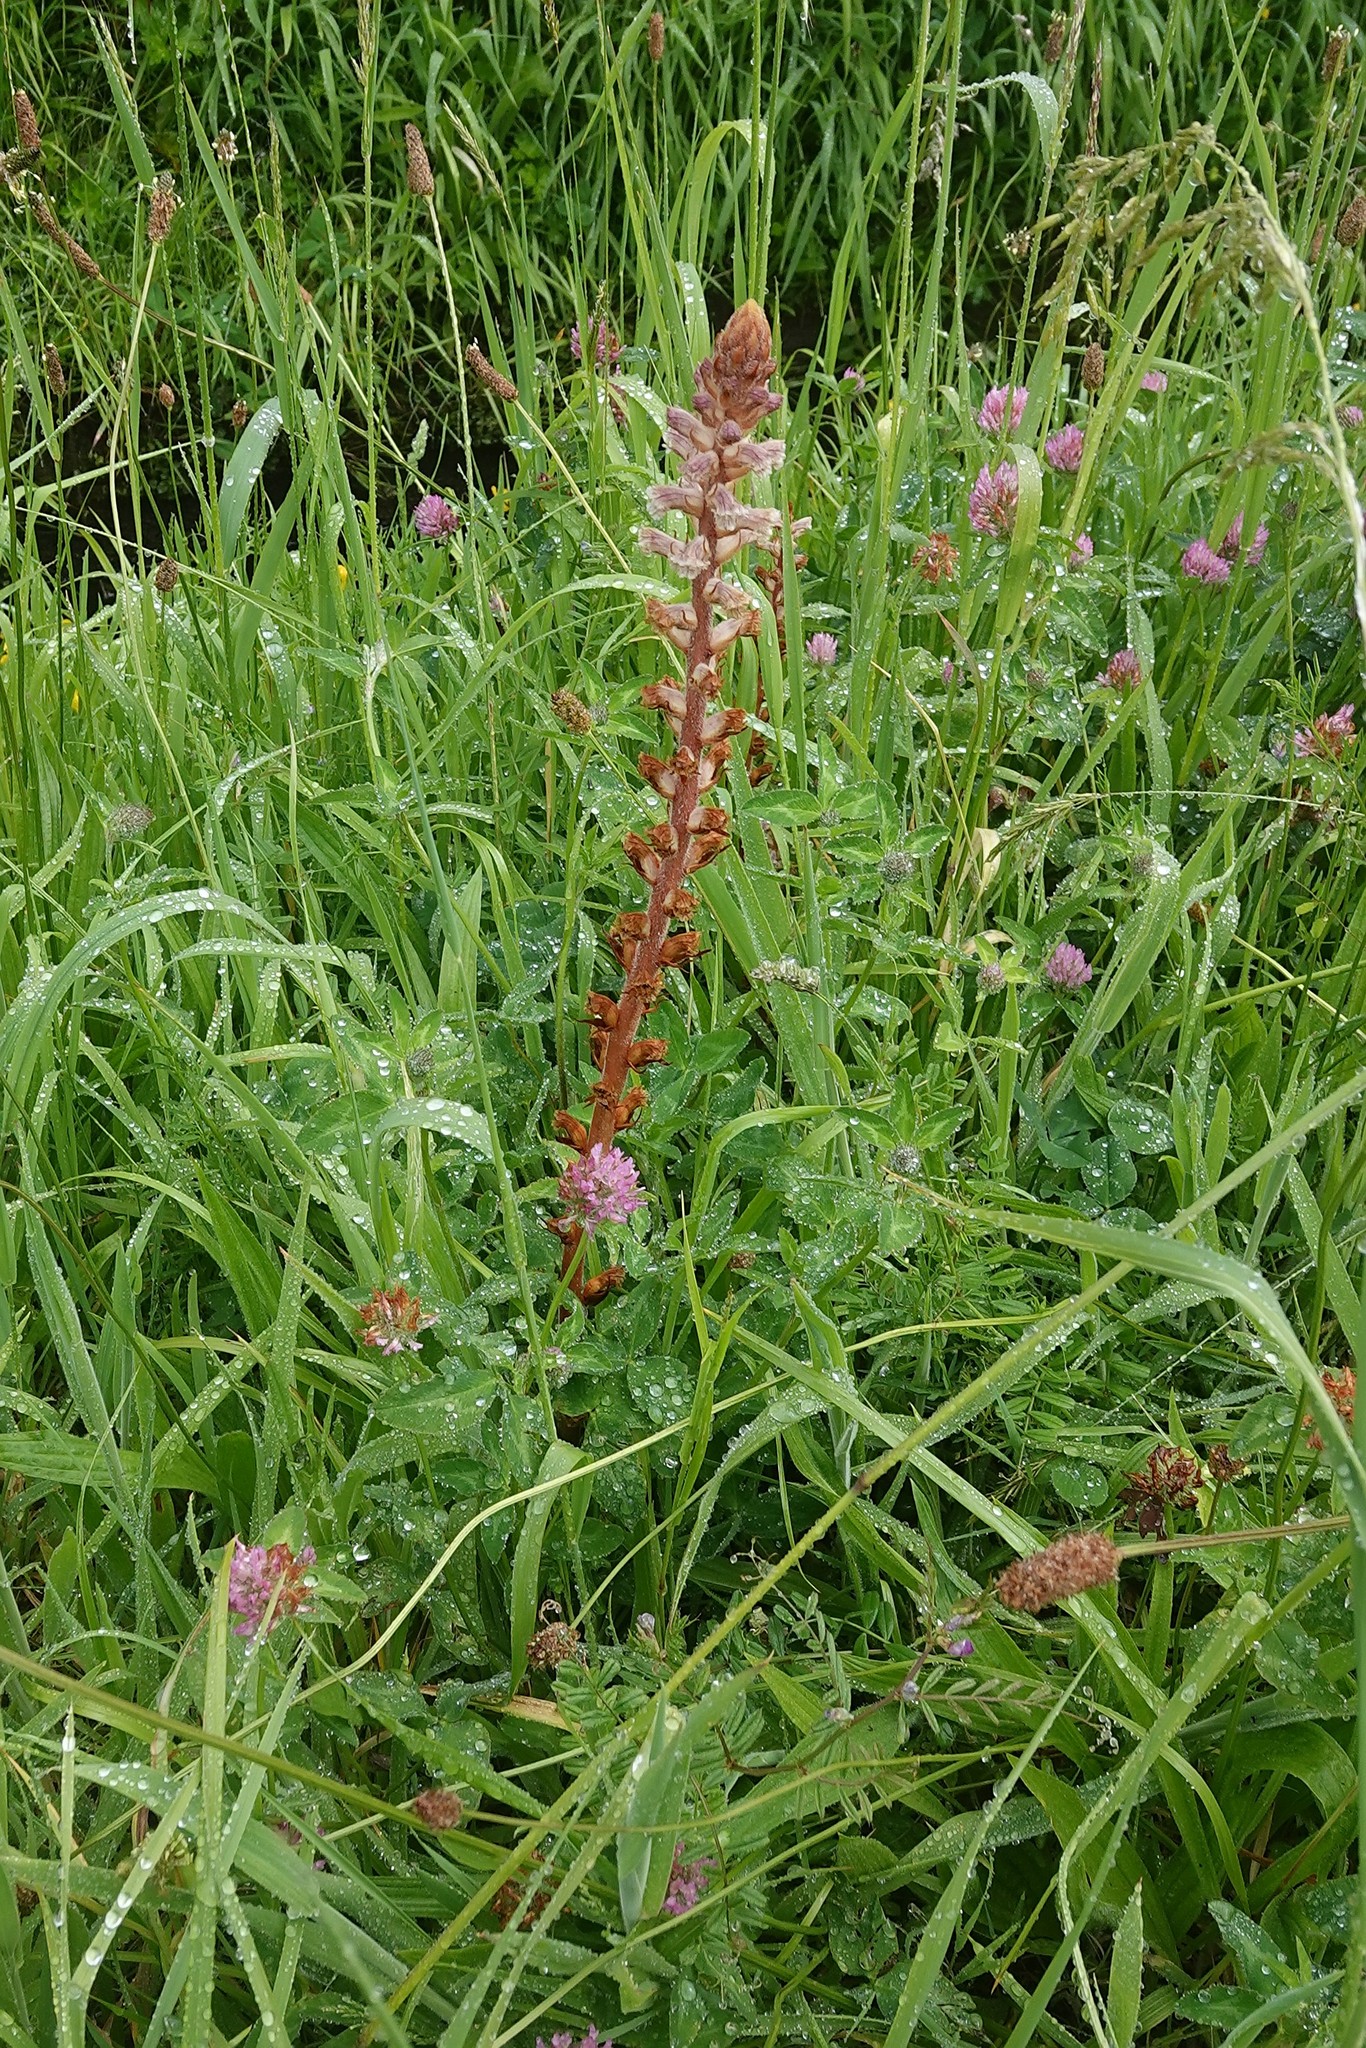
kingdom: Plantae
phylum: Tracheophyta
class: Magnoliopsida
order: Lamiales
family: Orobanchaceae
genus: Orobanche
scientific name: Orobanche minor
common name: Common broomrape
